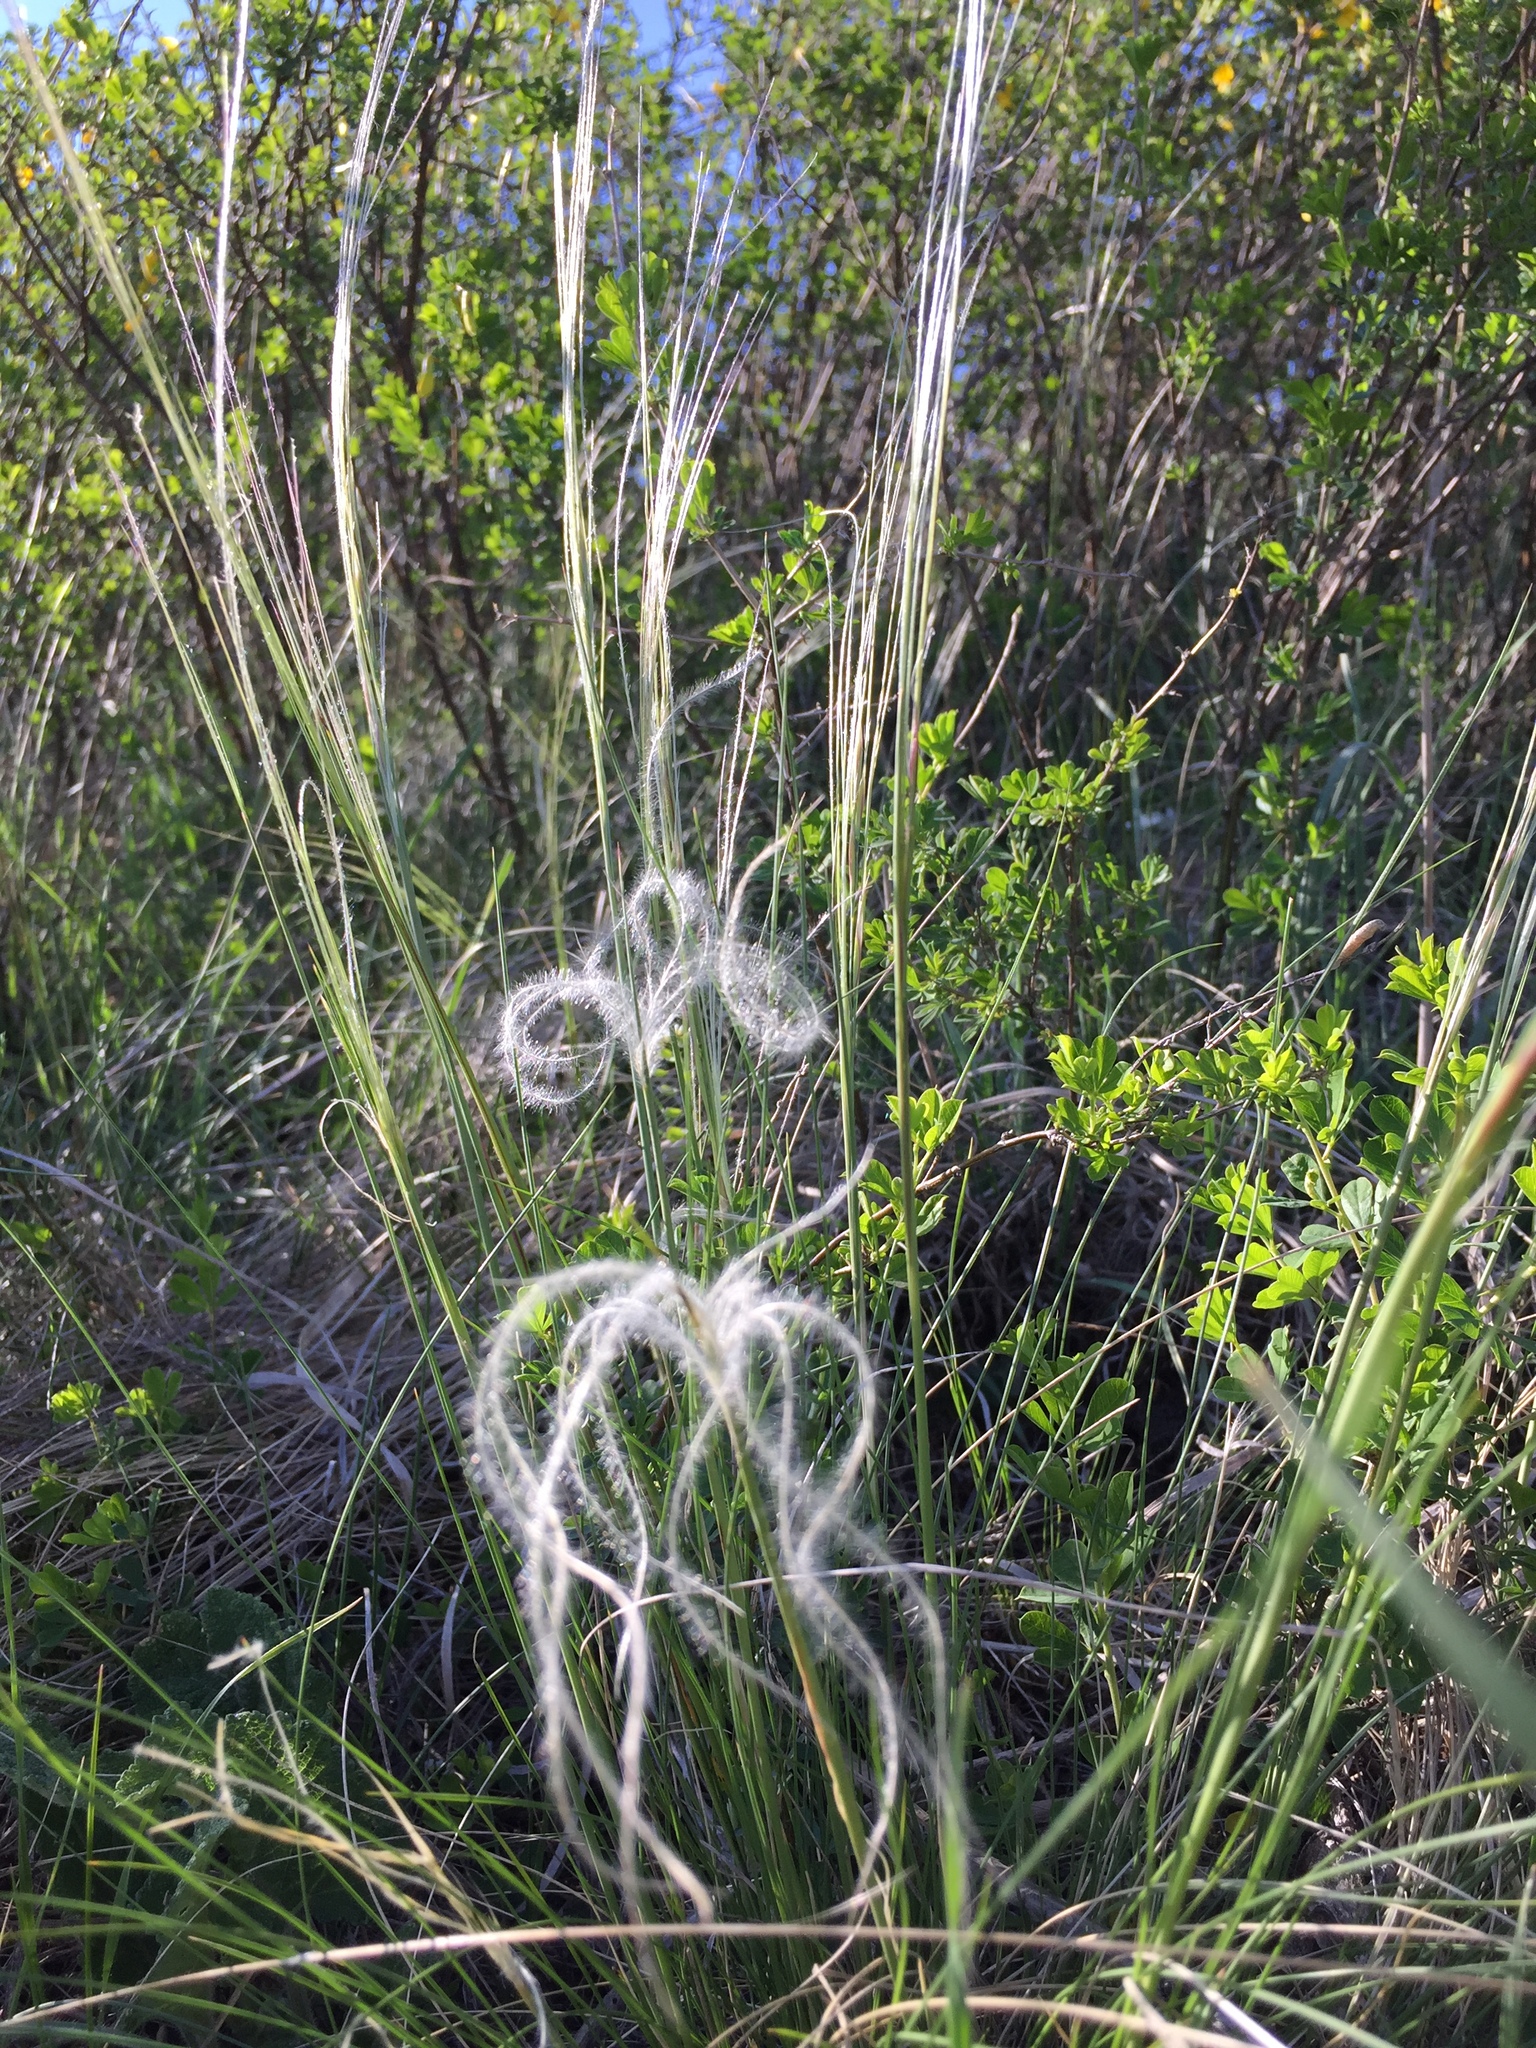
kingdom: Plantae
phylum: Tracheophyta
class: Liliopsida
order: Poales
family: Poaceae
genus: Stipa
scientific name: Stipa pennata
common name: European feather grass
